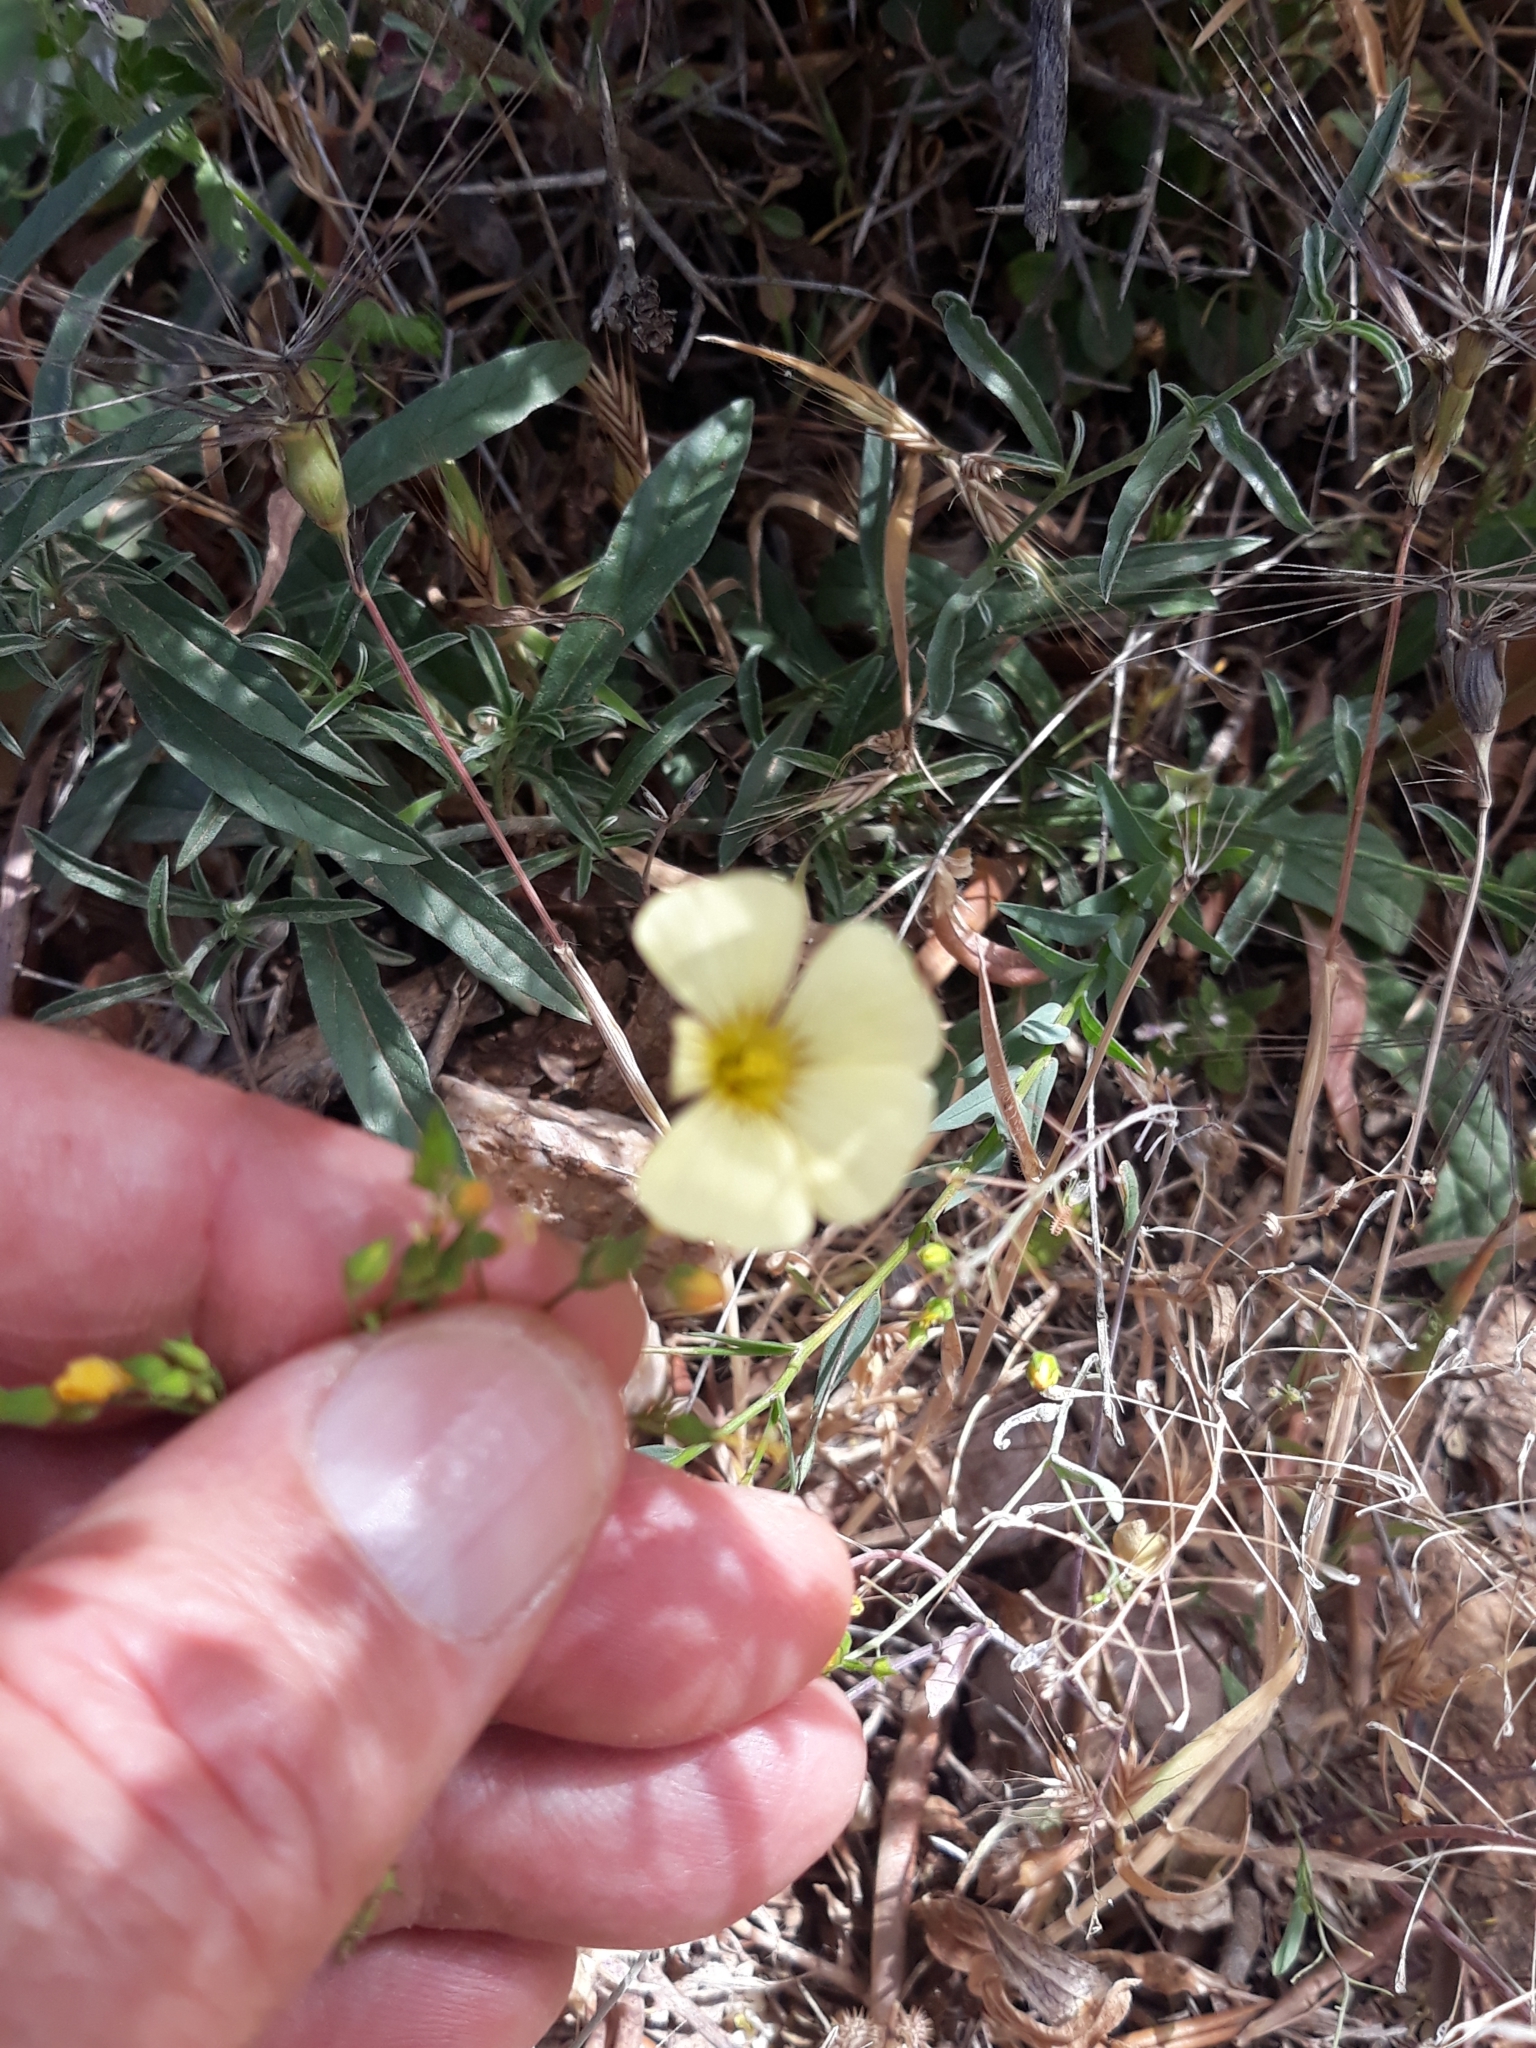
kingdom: Plantae
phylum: Tracheophyta
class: Magnoliopsida
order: Malpighiales
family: Linaceae
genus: Linum
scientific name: Linum corymbiferum
